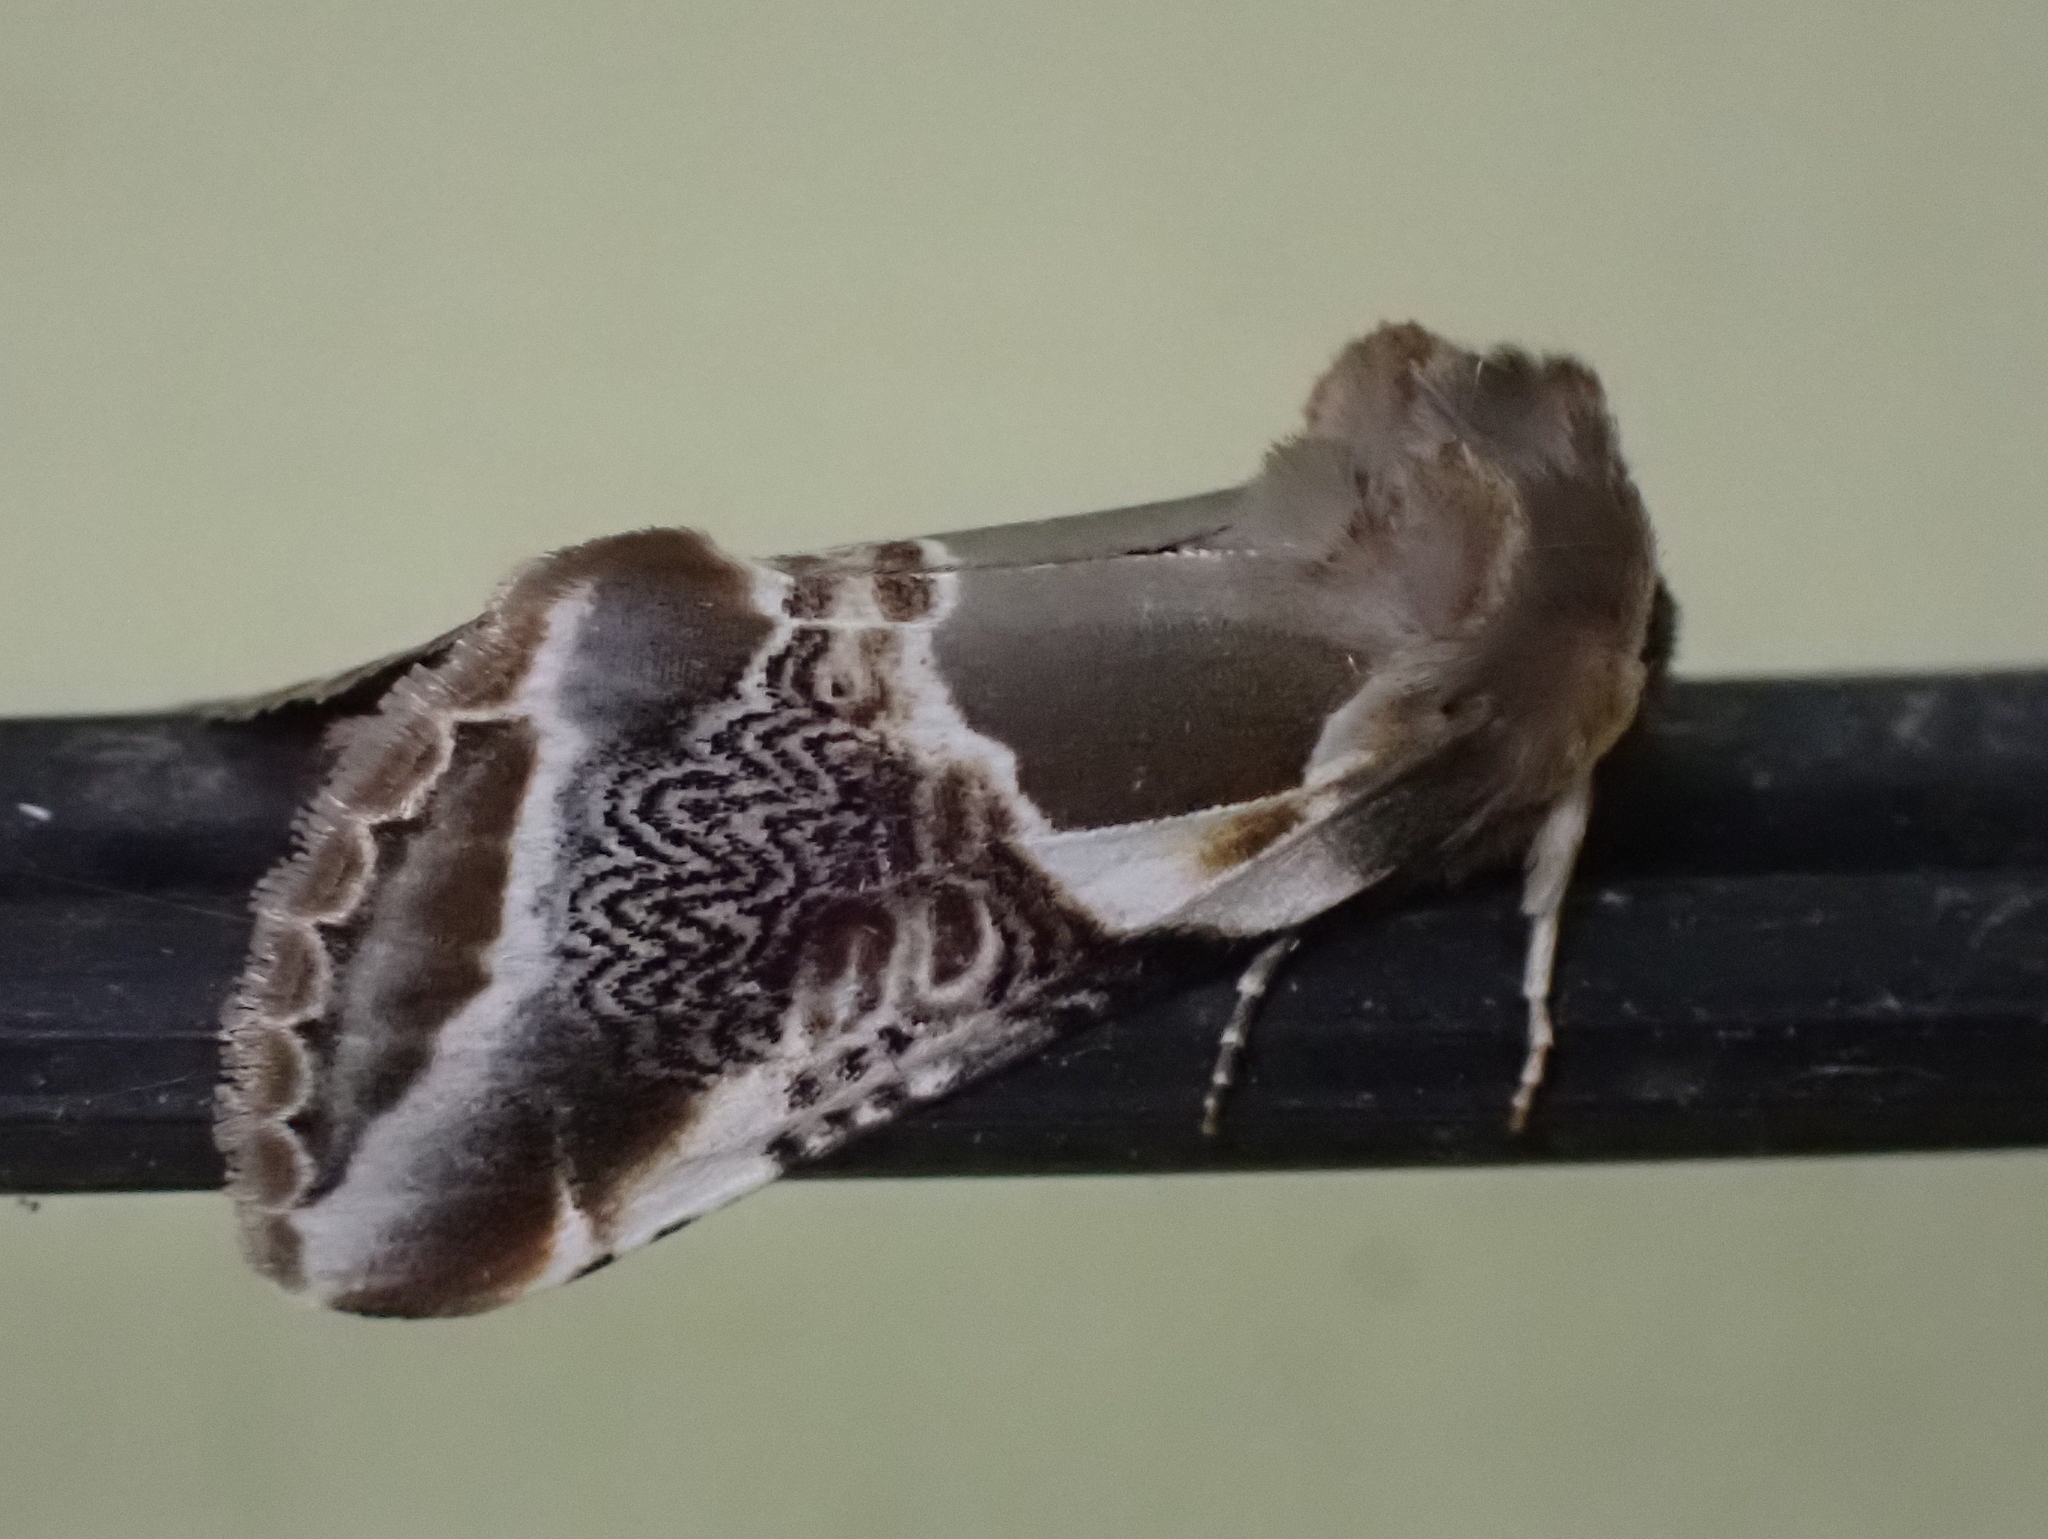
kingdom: Animalia
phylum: Arthropoda
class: Insecta
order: Lepidoptera
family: Drepanidae
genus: Habrosyne
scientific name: Habrosyne scripta
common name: Lettered habrosyne moth
